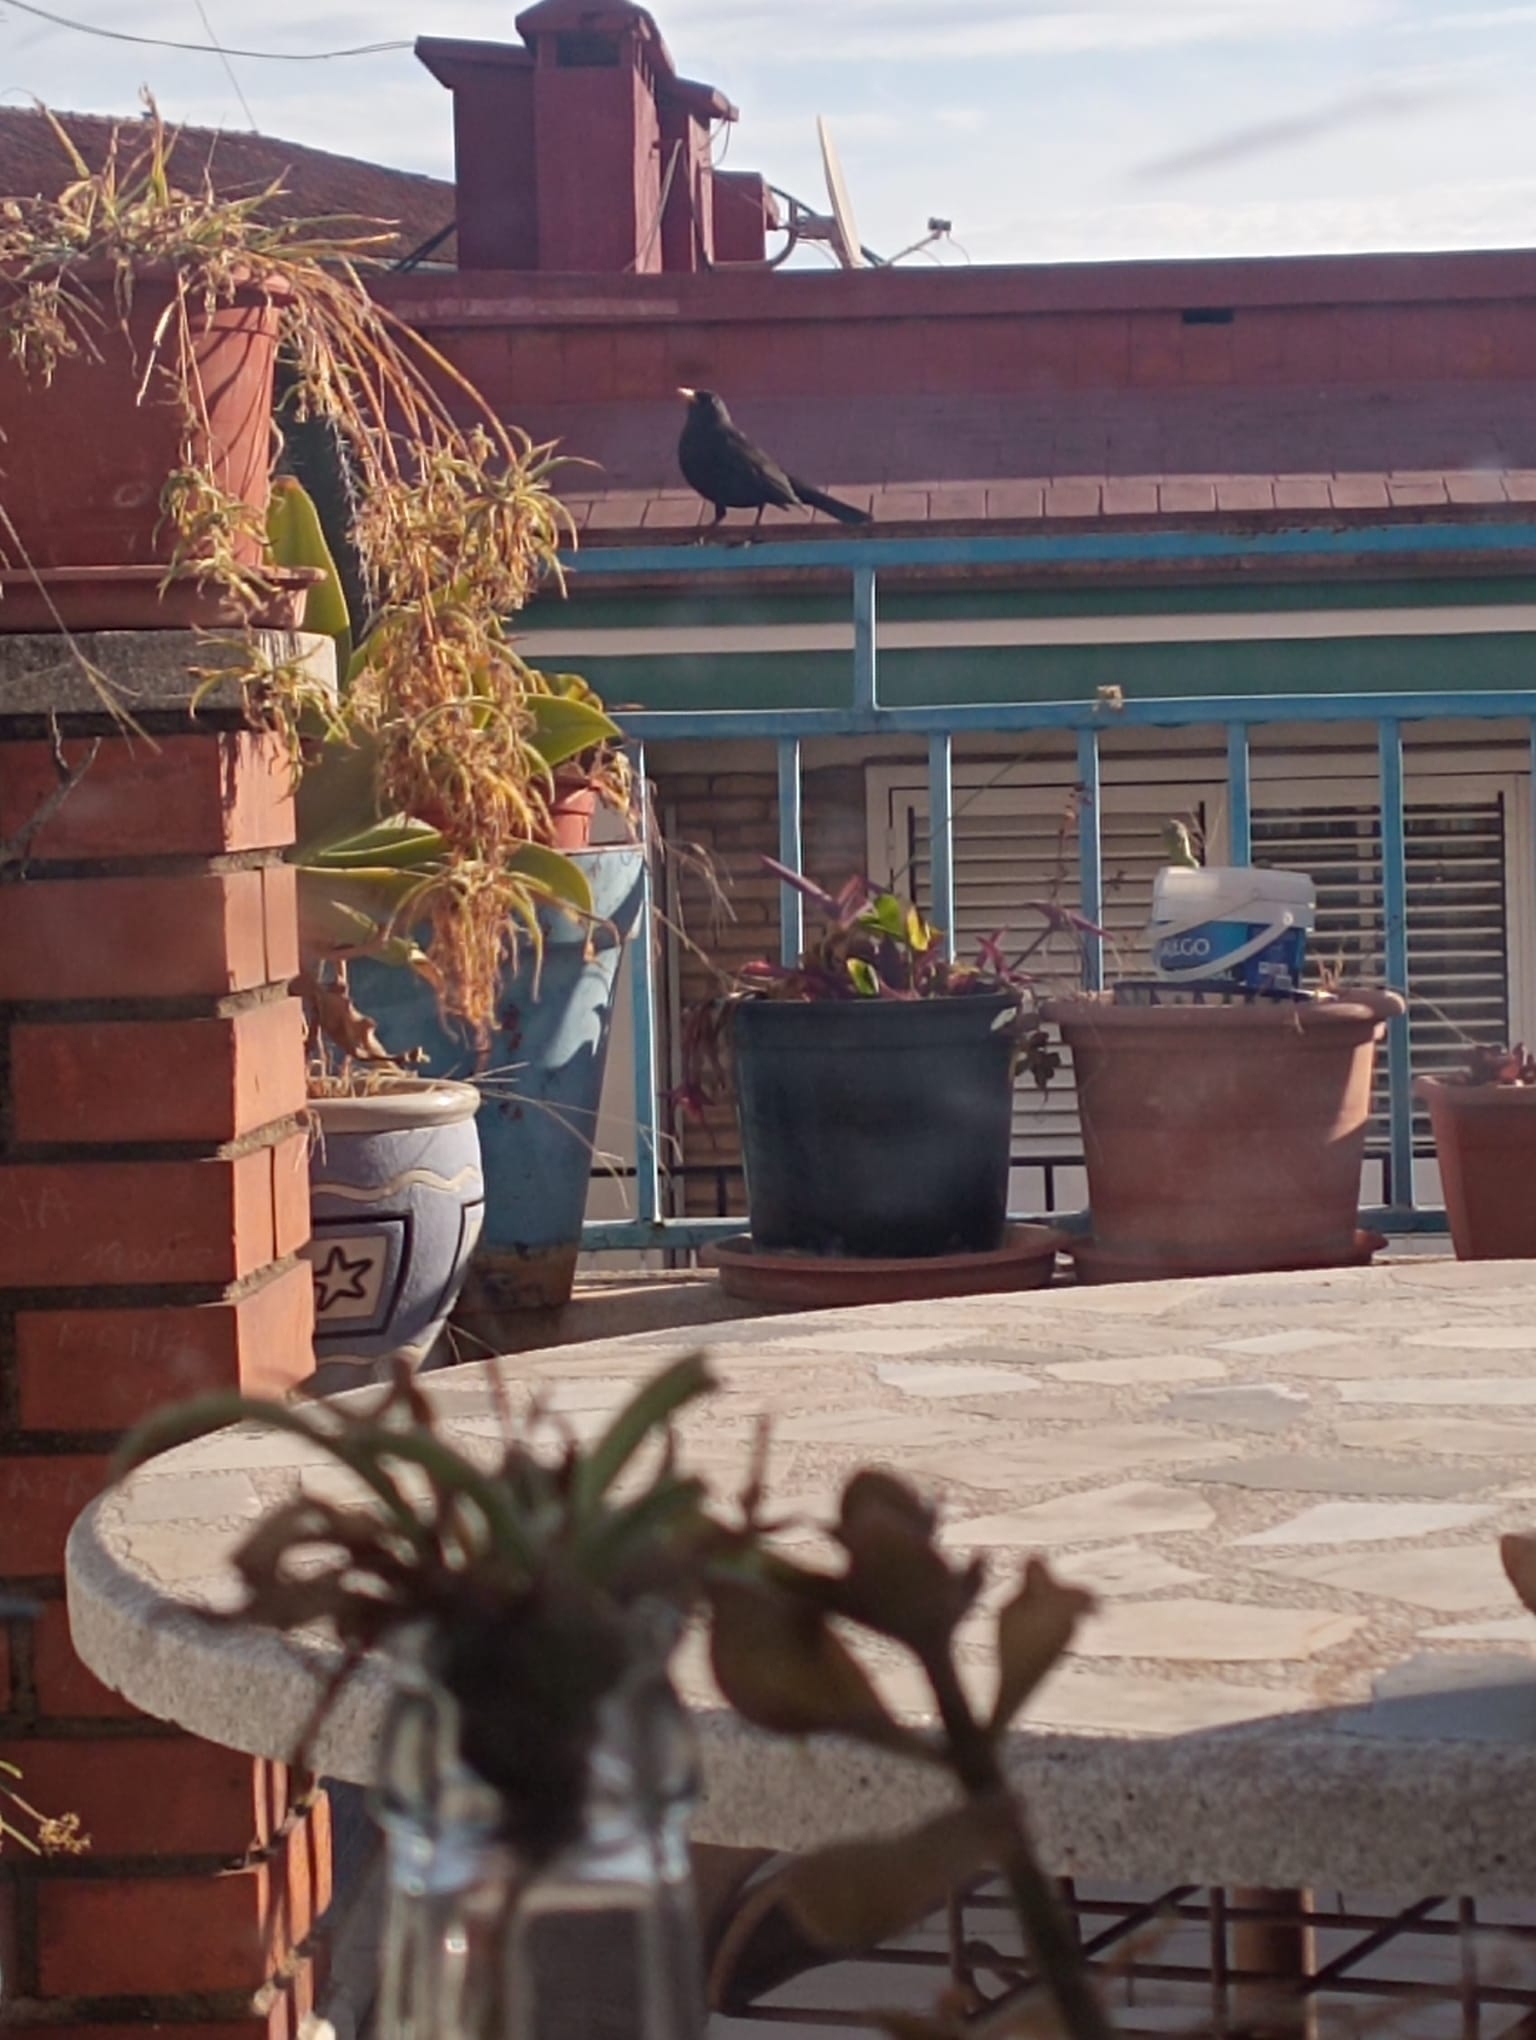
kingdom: Animalia
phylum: Chordata
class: Aves
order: Passeriformes
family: Turdidae
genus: Turdus
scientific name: Turdus merula
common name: Common blackbird
